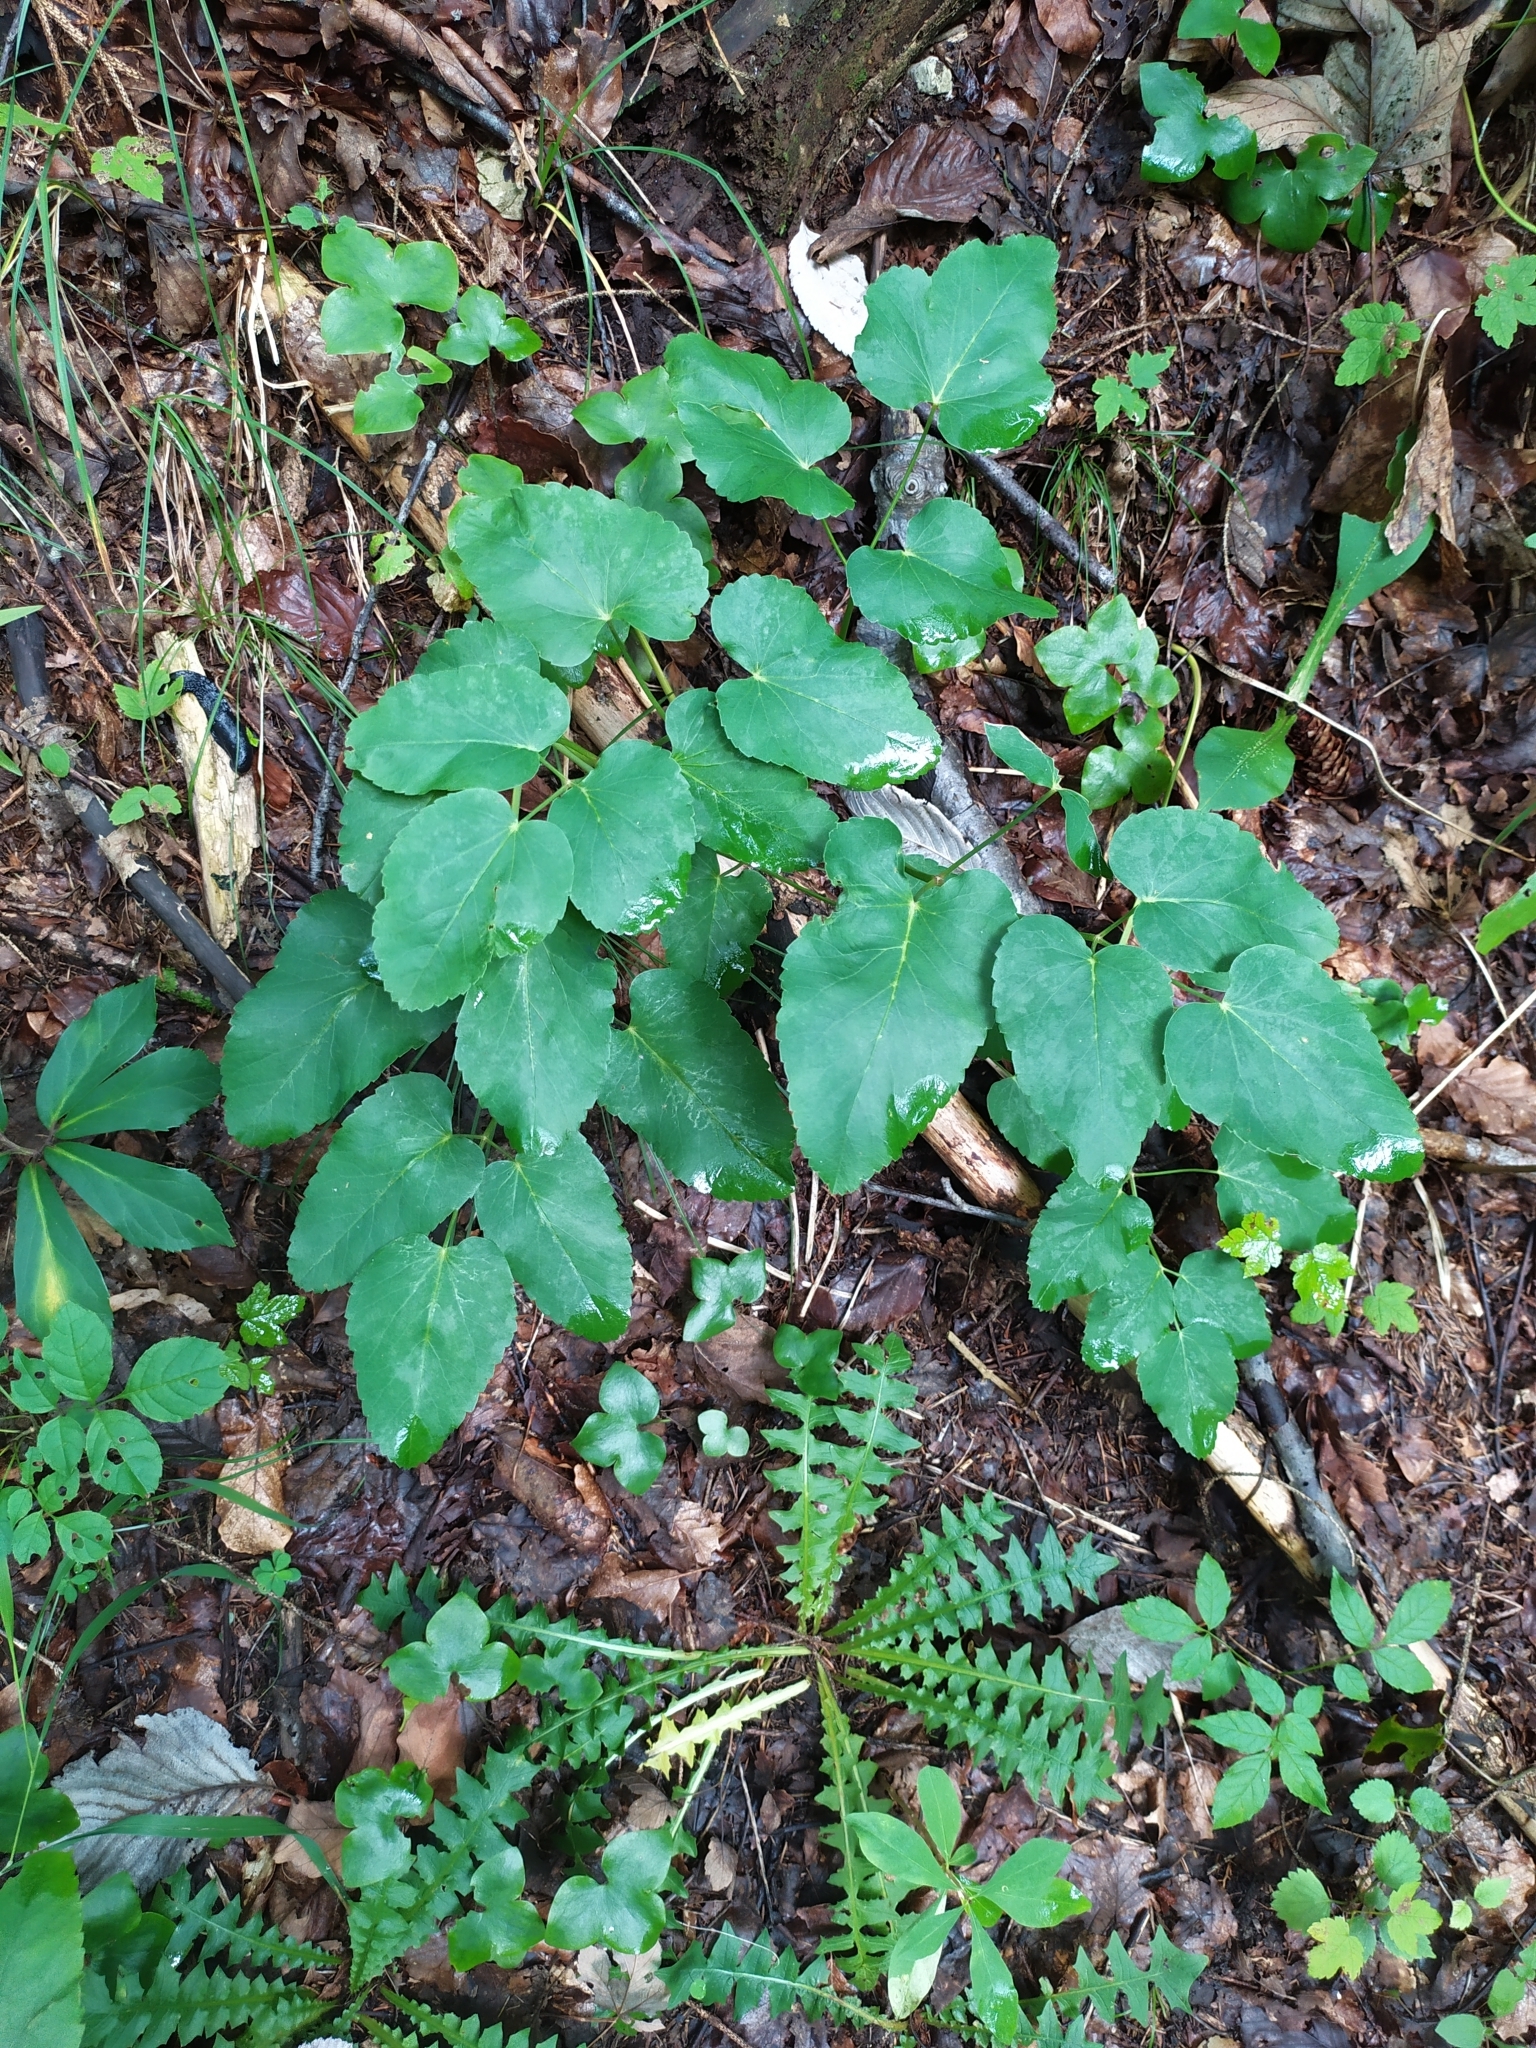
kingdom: Plantae
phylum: Tracheophyta
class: Magnoliopsida
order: Apiales
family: Apiaceae
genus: Laserpitium
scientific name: Laserpitium latifolium
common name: Broadleaf sermountain
